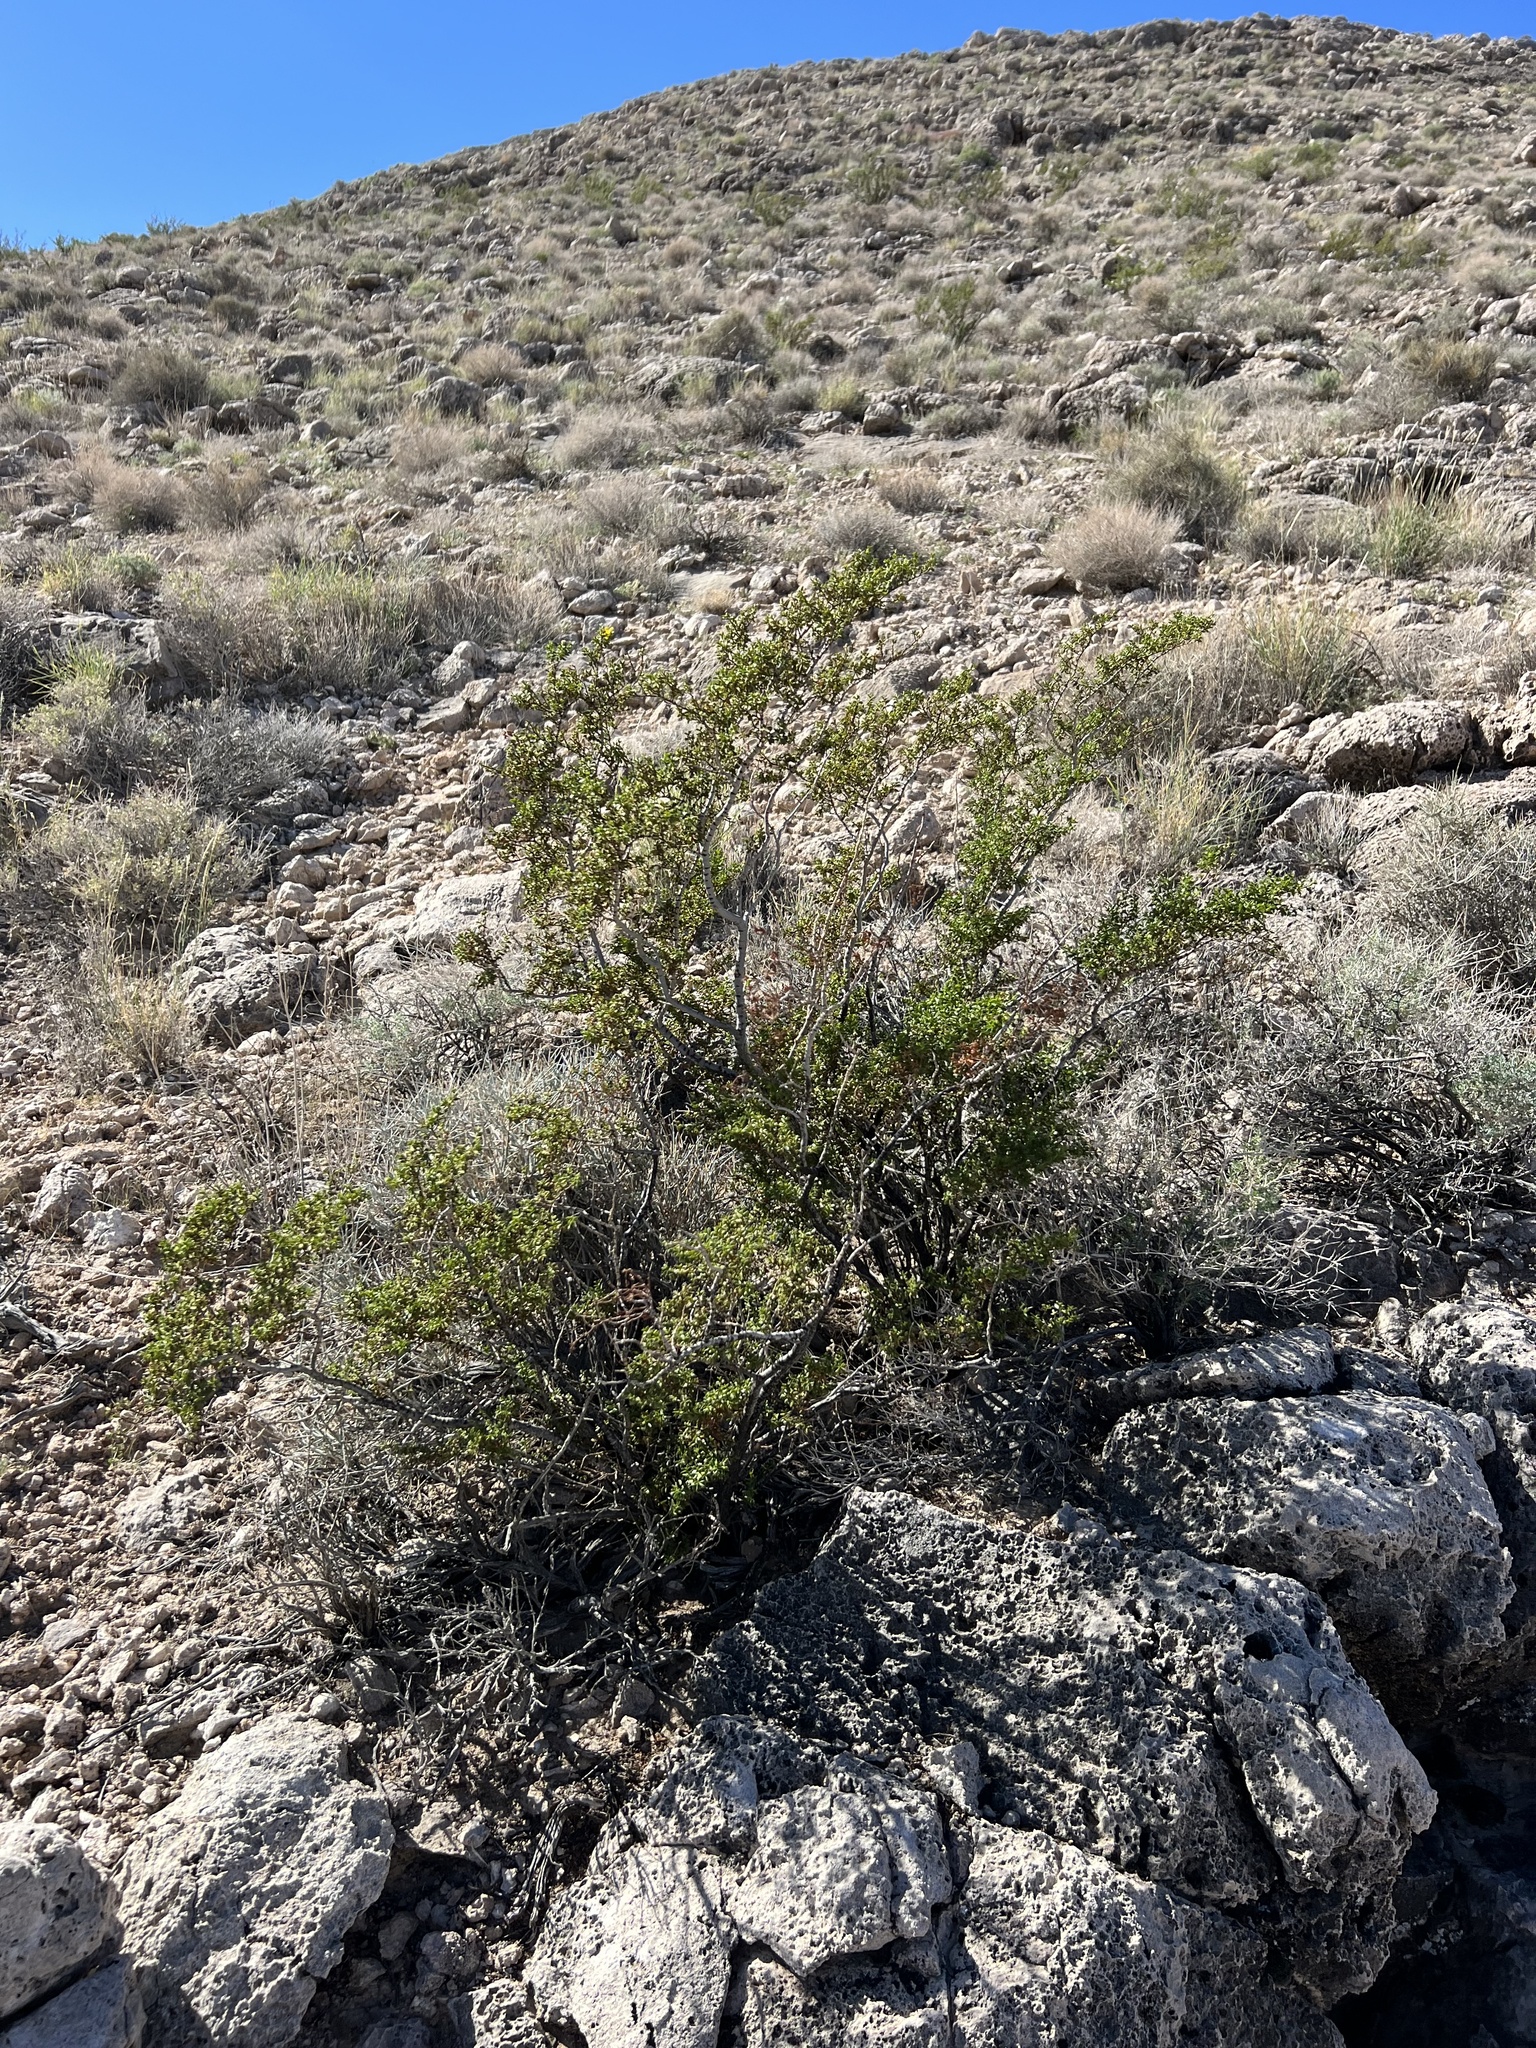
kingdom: Plantae
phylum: Tracheophyta
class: Magnoliopsida
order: Zygophyllales
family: Zygophyllaceae
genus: Larrea
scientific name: Larrea tridentata
